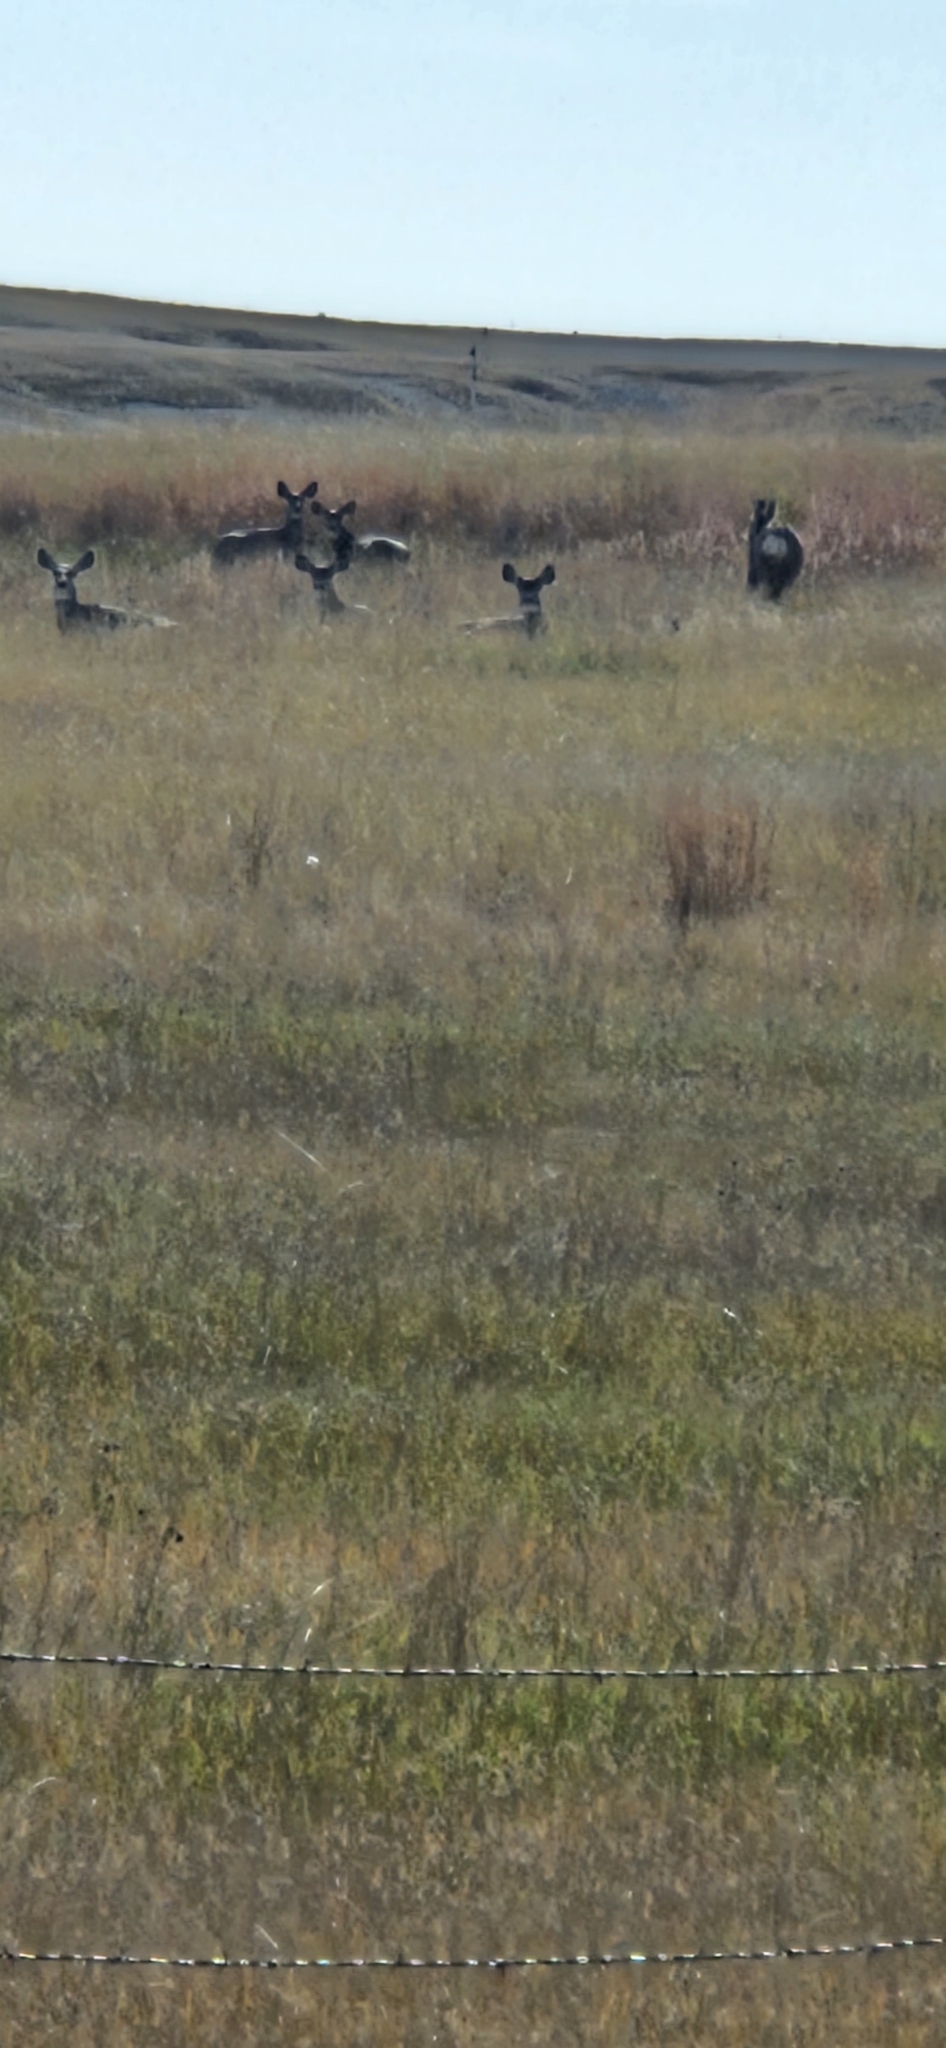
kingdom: Animalia
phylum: Chordata
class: Mammalia
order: Artiodactyla
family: Cervidae
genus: Odocoileus
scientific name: Odocoileus hemionus
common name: Mule deer
